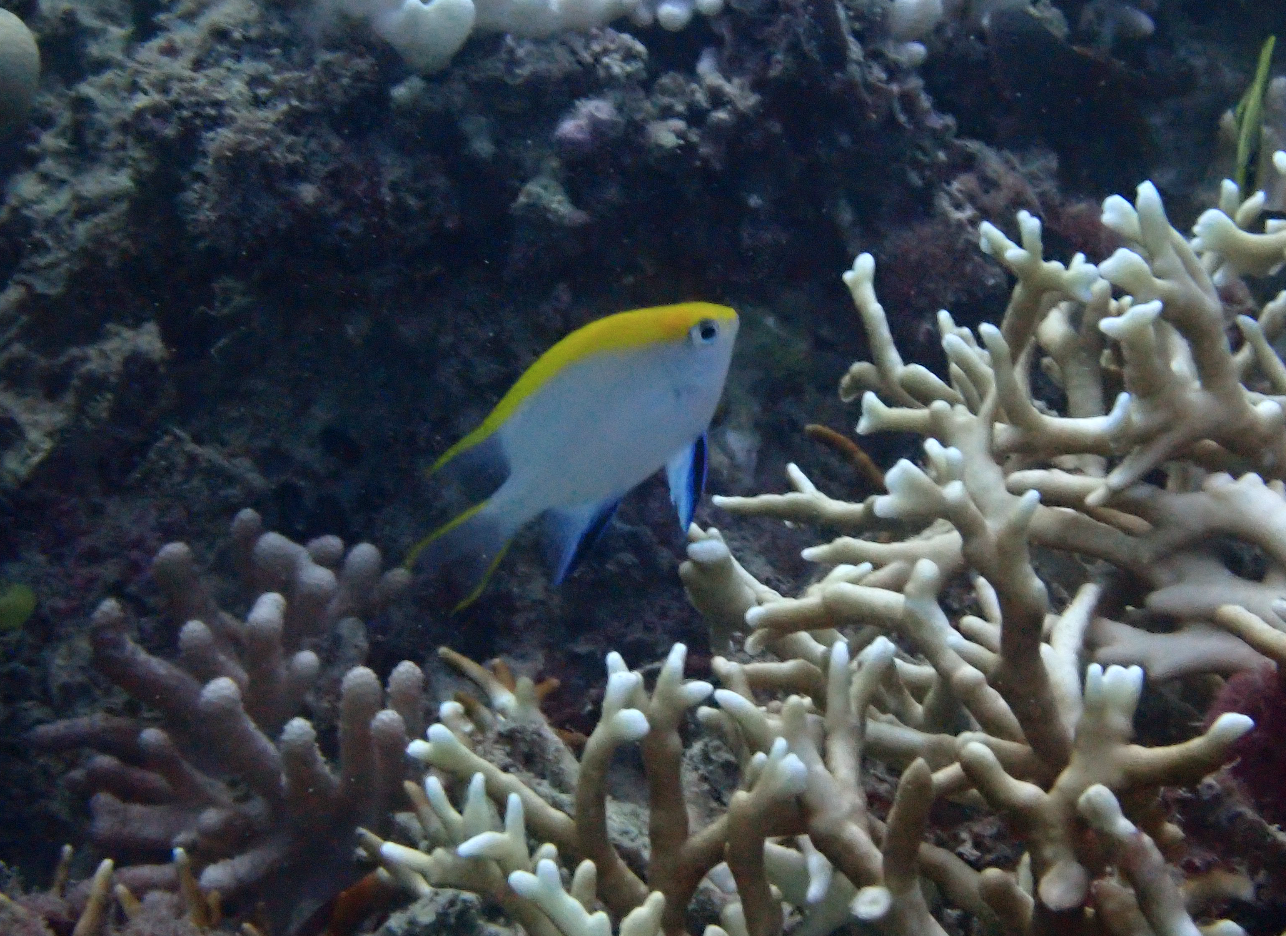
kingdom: Animalia
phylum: Chordata
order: Perciformes
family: Pomacentridae
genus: Neoglyphidodon
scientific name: Neoglyphidodon melas
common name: Black damsel
